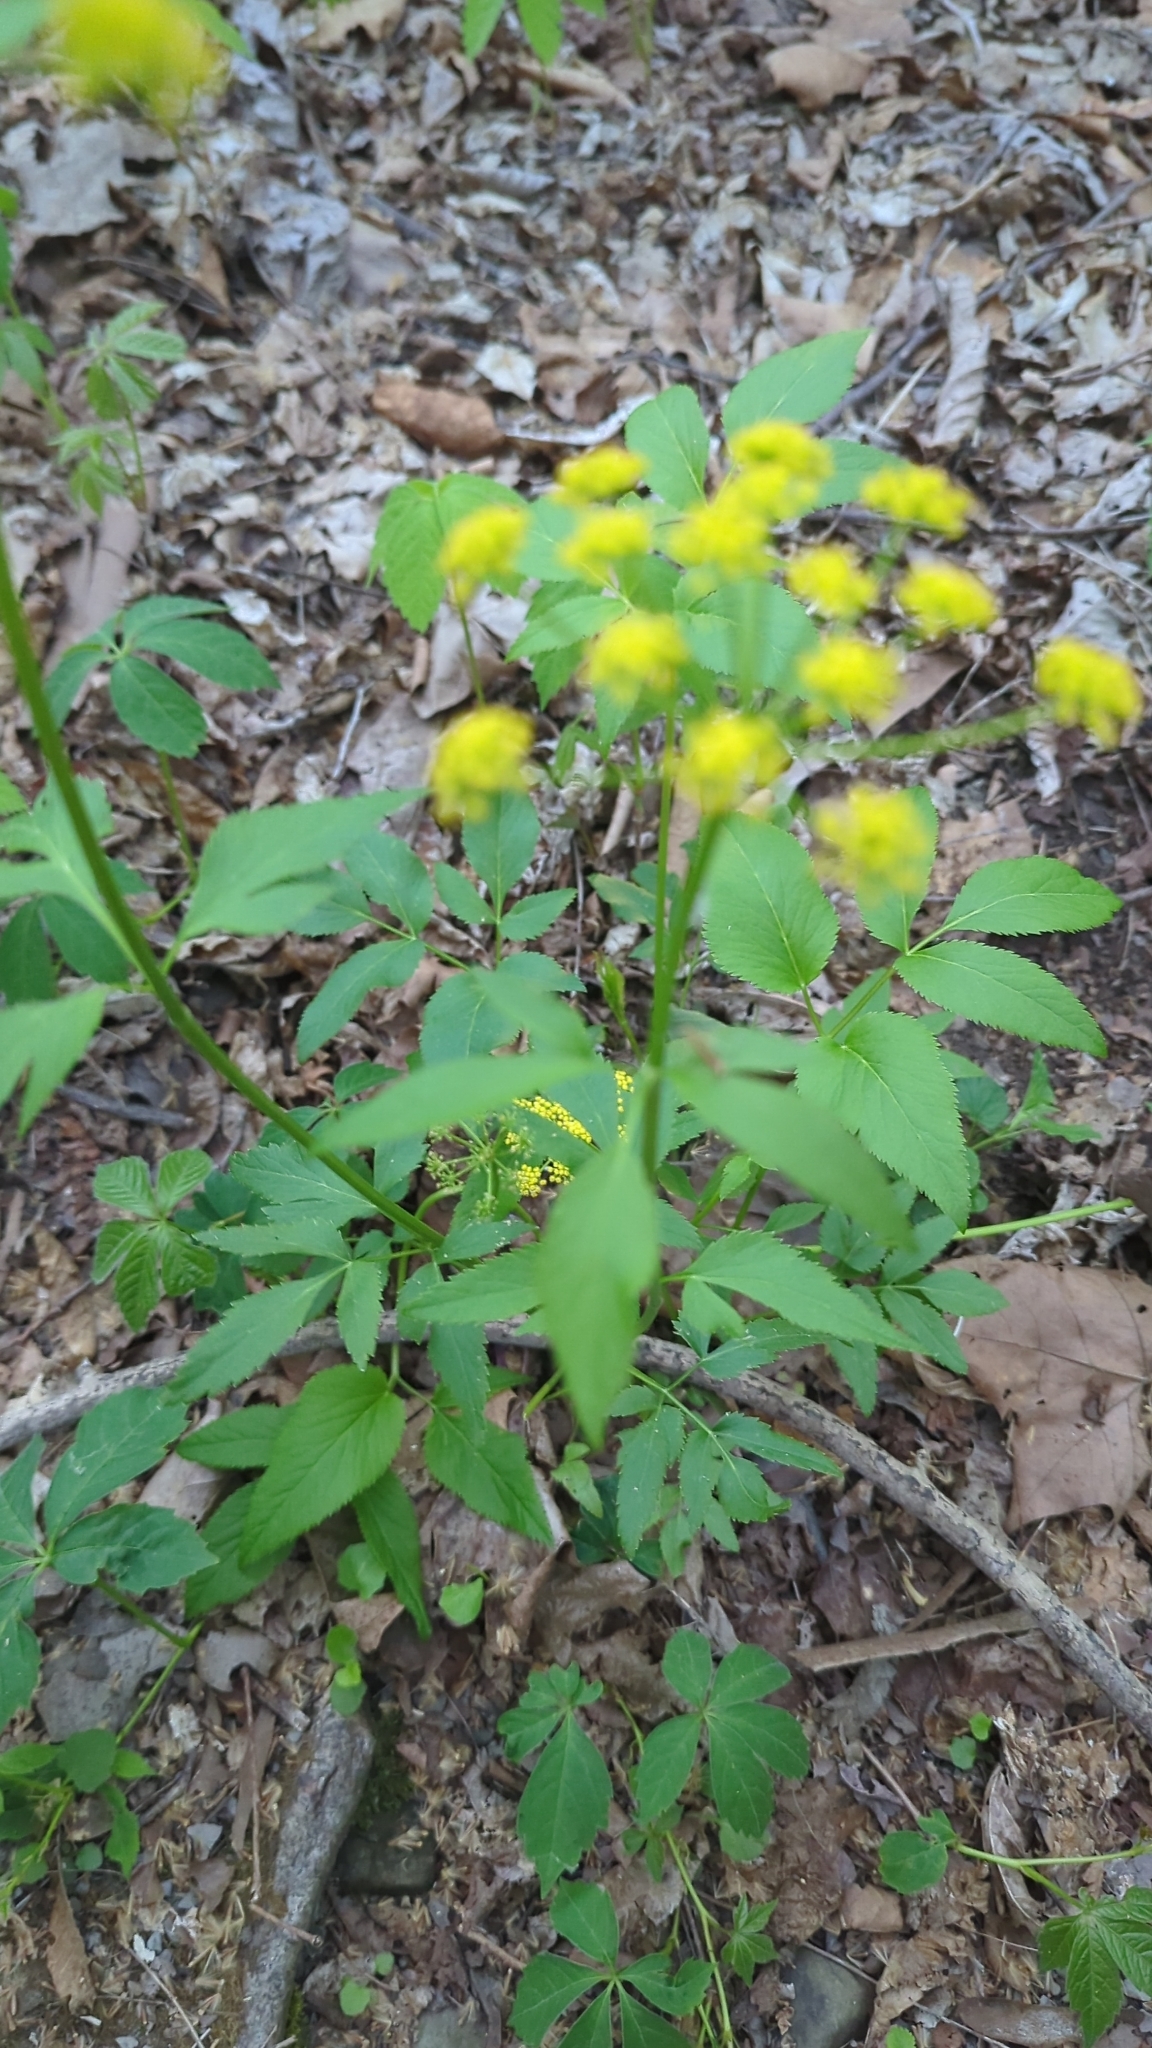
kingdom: Plantae
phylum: Tracheophyta
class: Magnoliopsida
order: Apiales
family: Apiaceae
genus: Zizia
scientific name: Zizia aurea
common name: Golden alexanders
